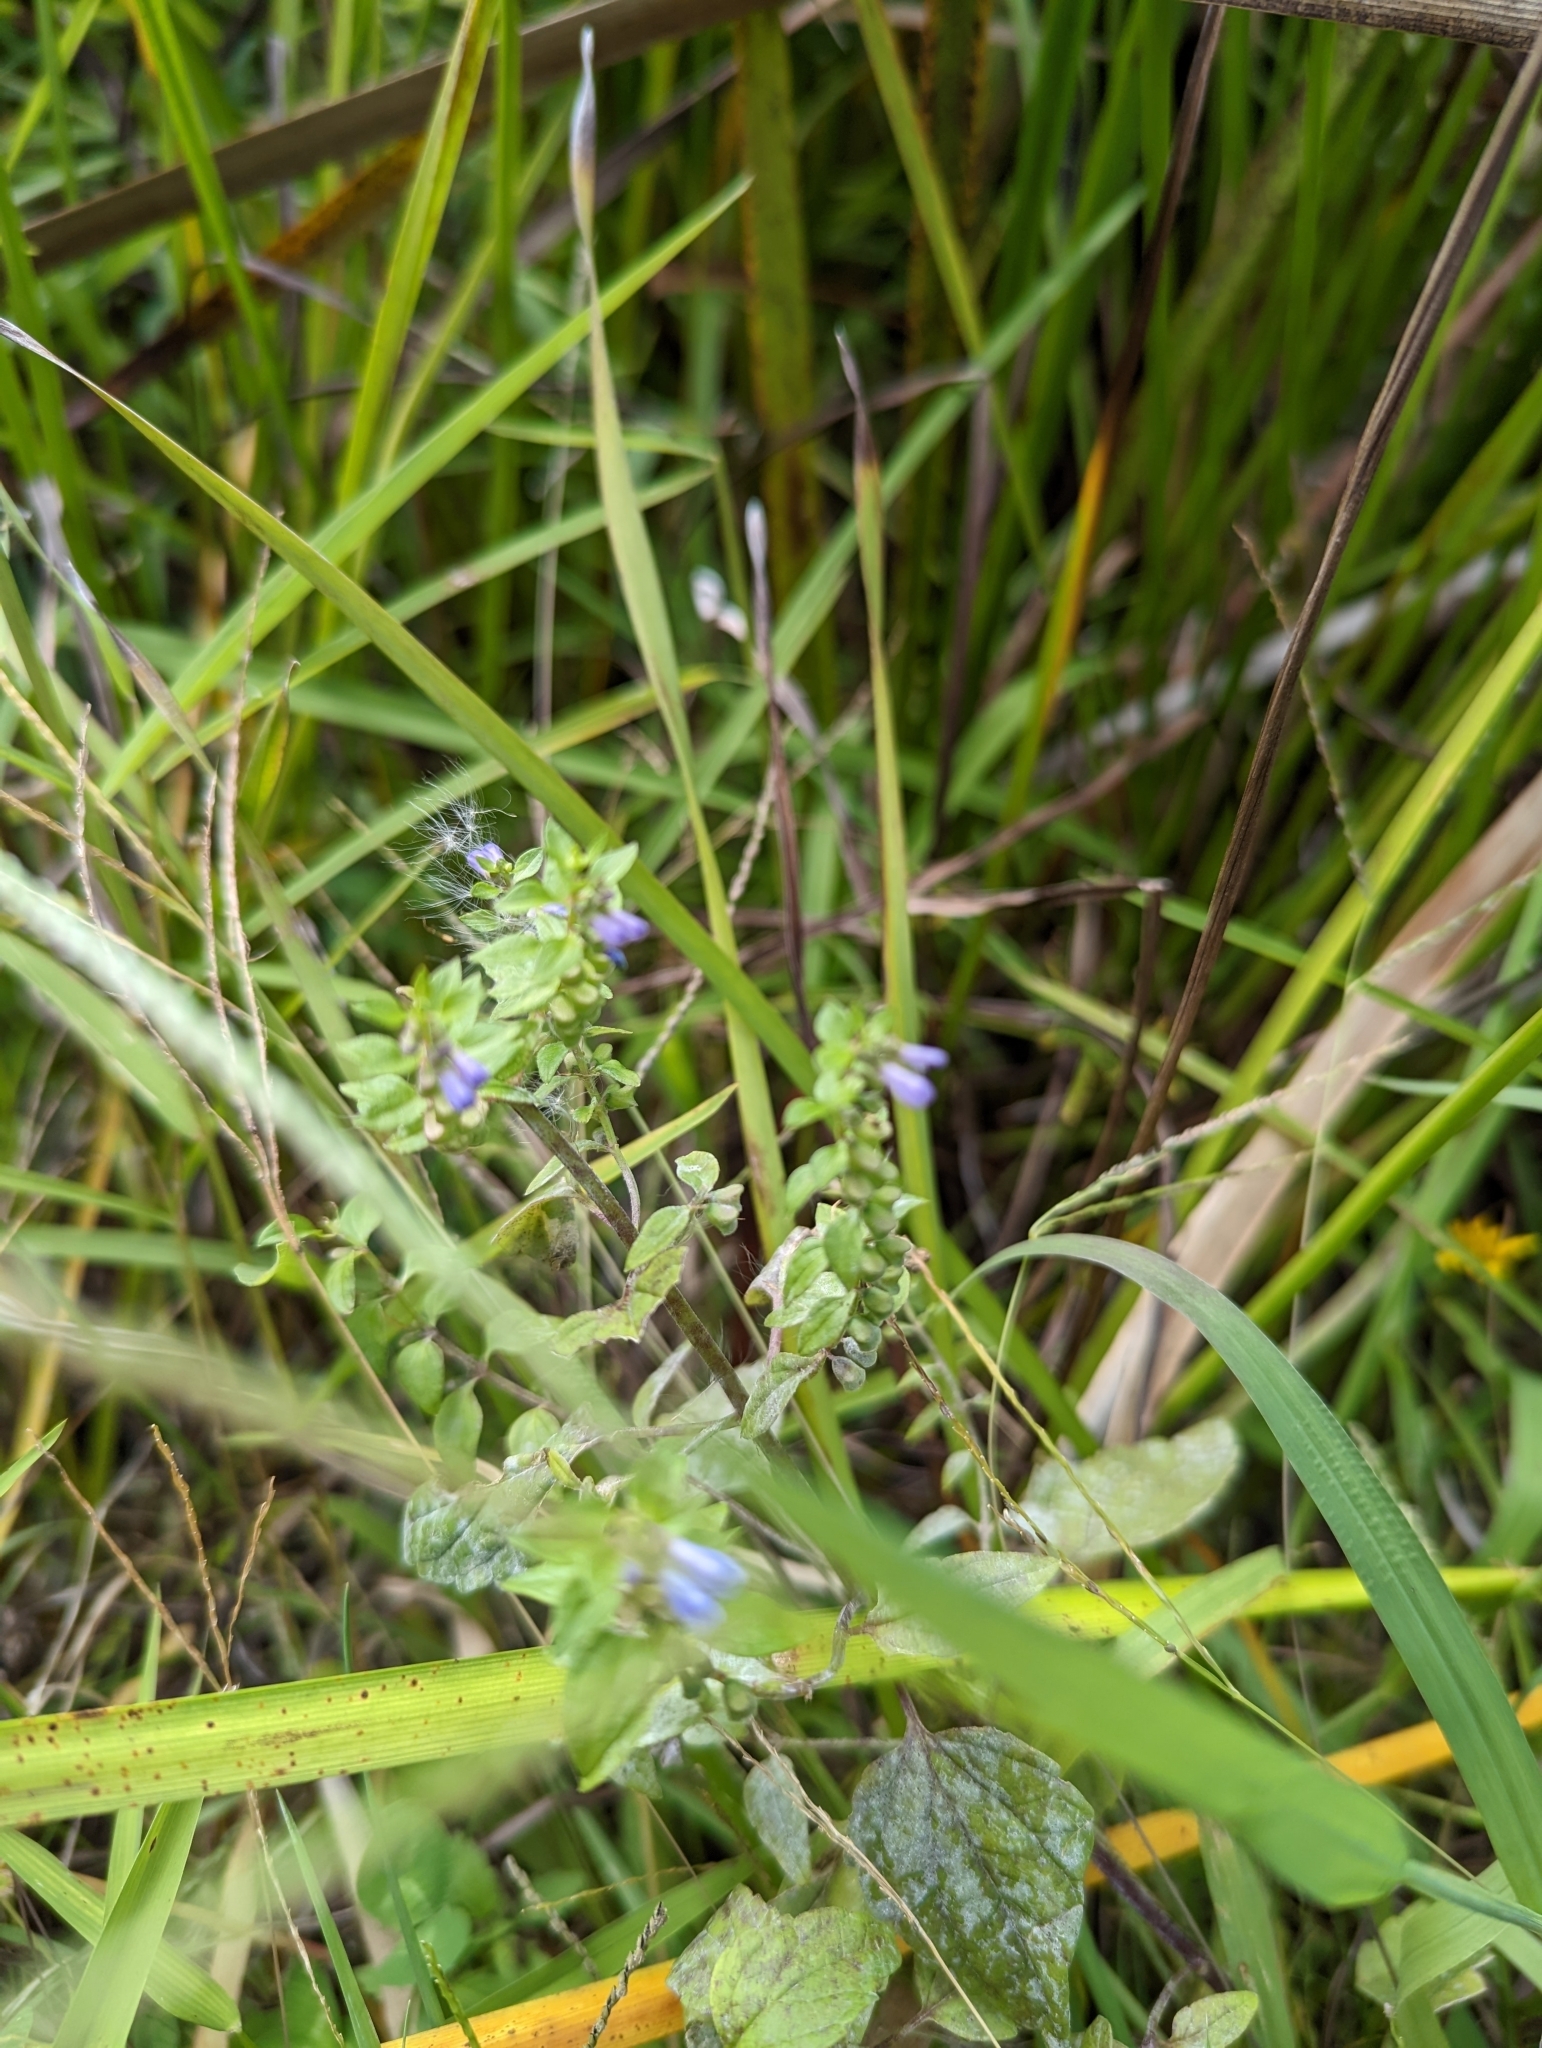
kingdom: Plantae
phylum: Tracheophyta
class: Magnoliopsida
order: Lamiales
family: Lamiaceae
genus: Scutellaria
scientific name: Scutellaria lateriflora
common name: Blue skullcap
